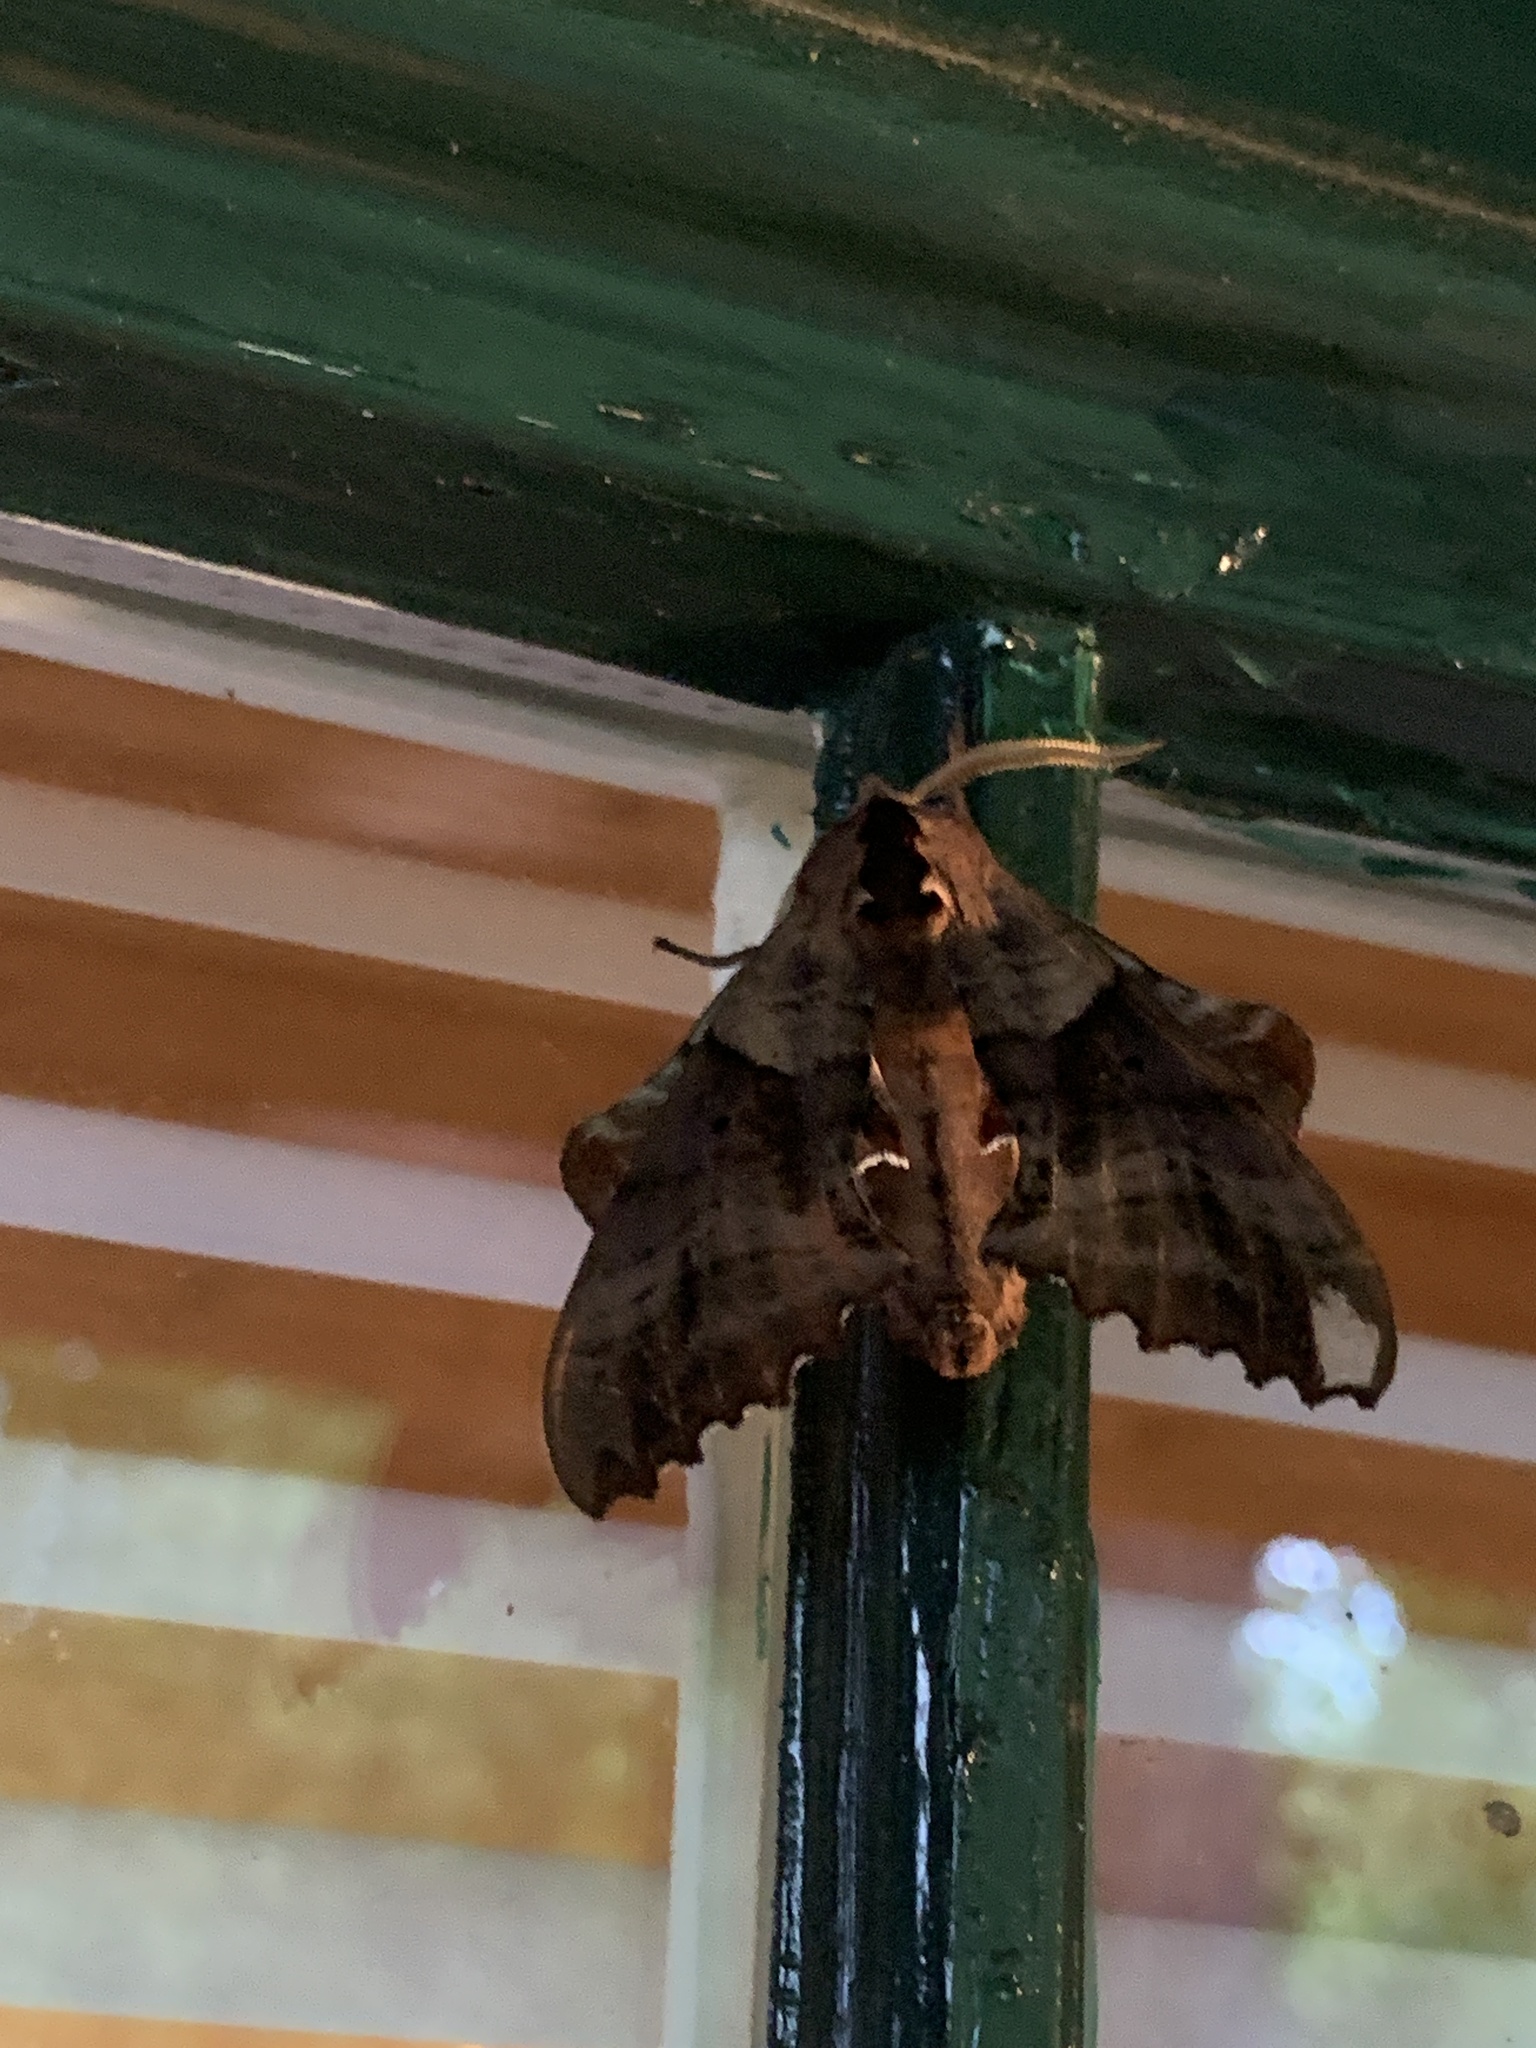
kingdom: Animalia
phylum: Arthropoda
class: Insecta
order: Lepidoptera
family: Sphingidae
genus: Paonias
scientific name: Paonias excaecata
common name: Blind-eyed sphinx
